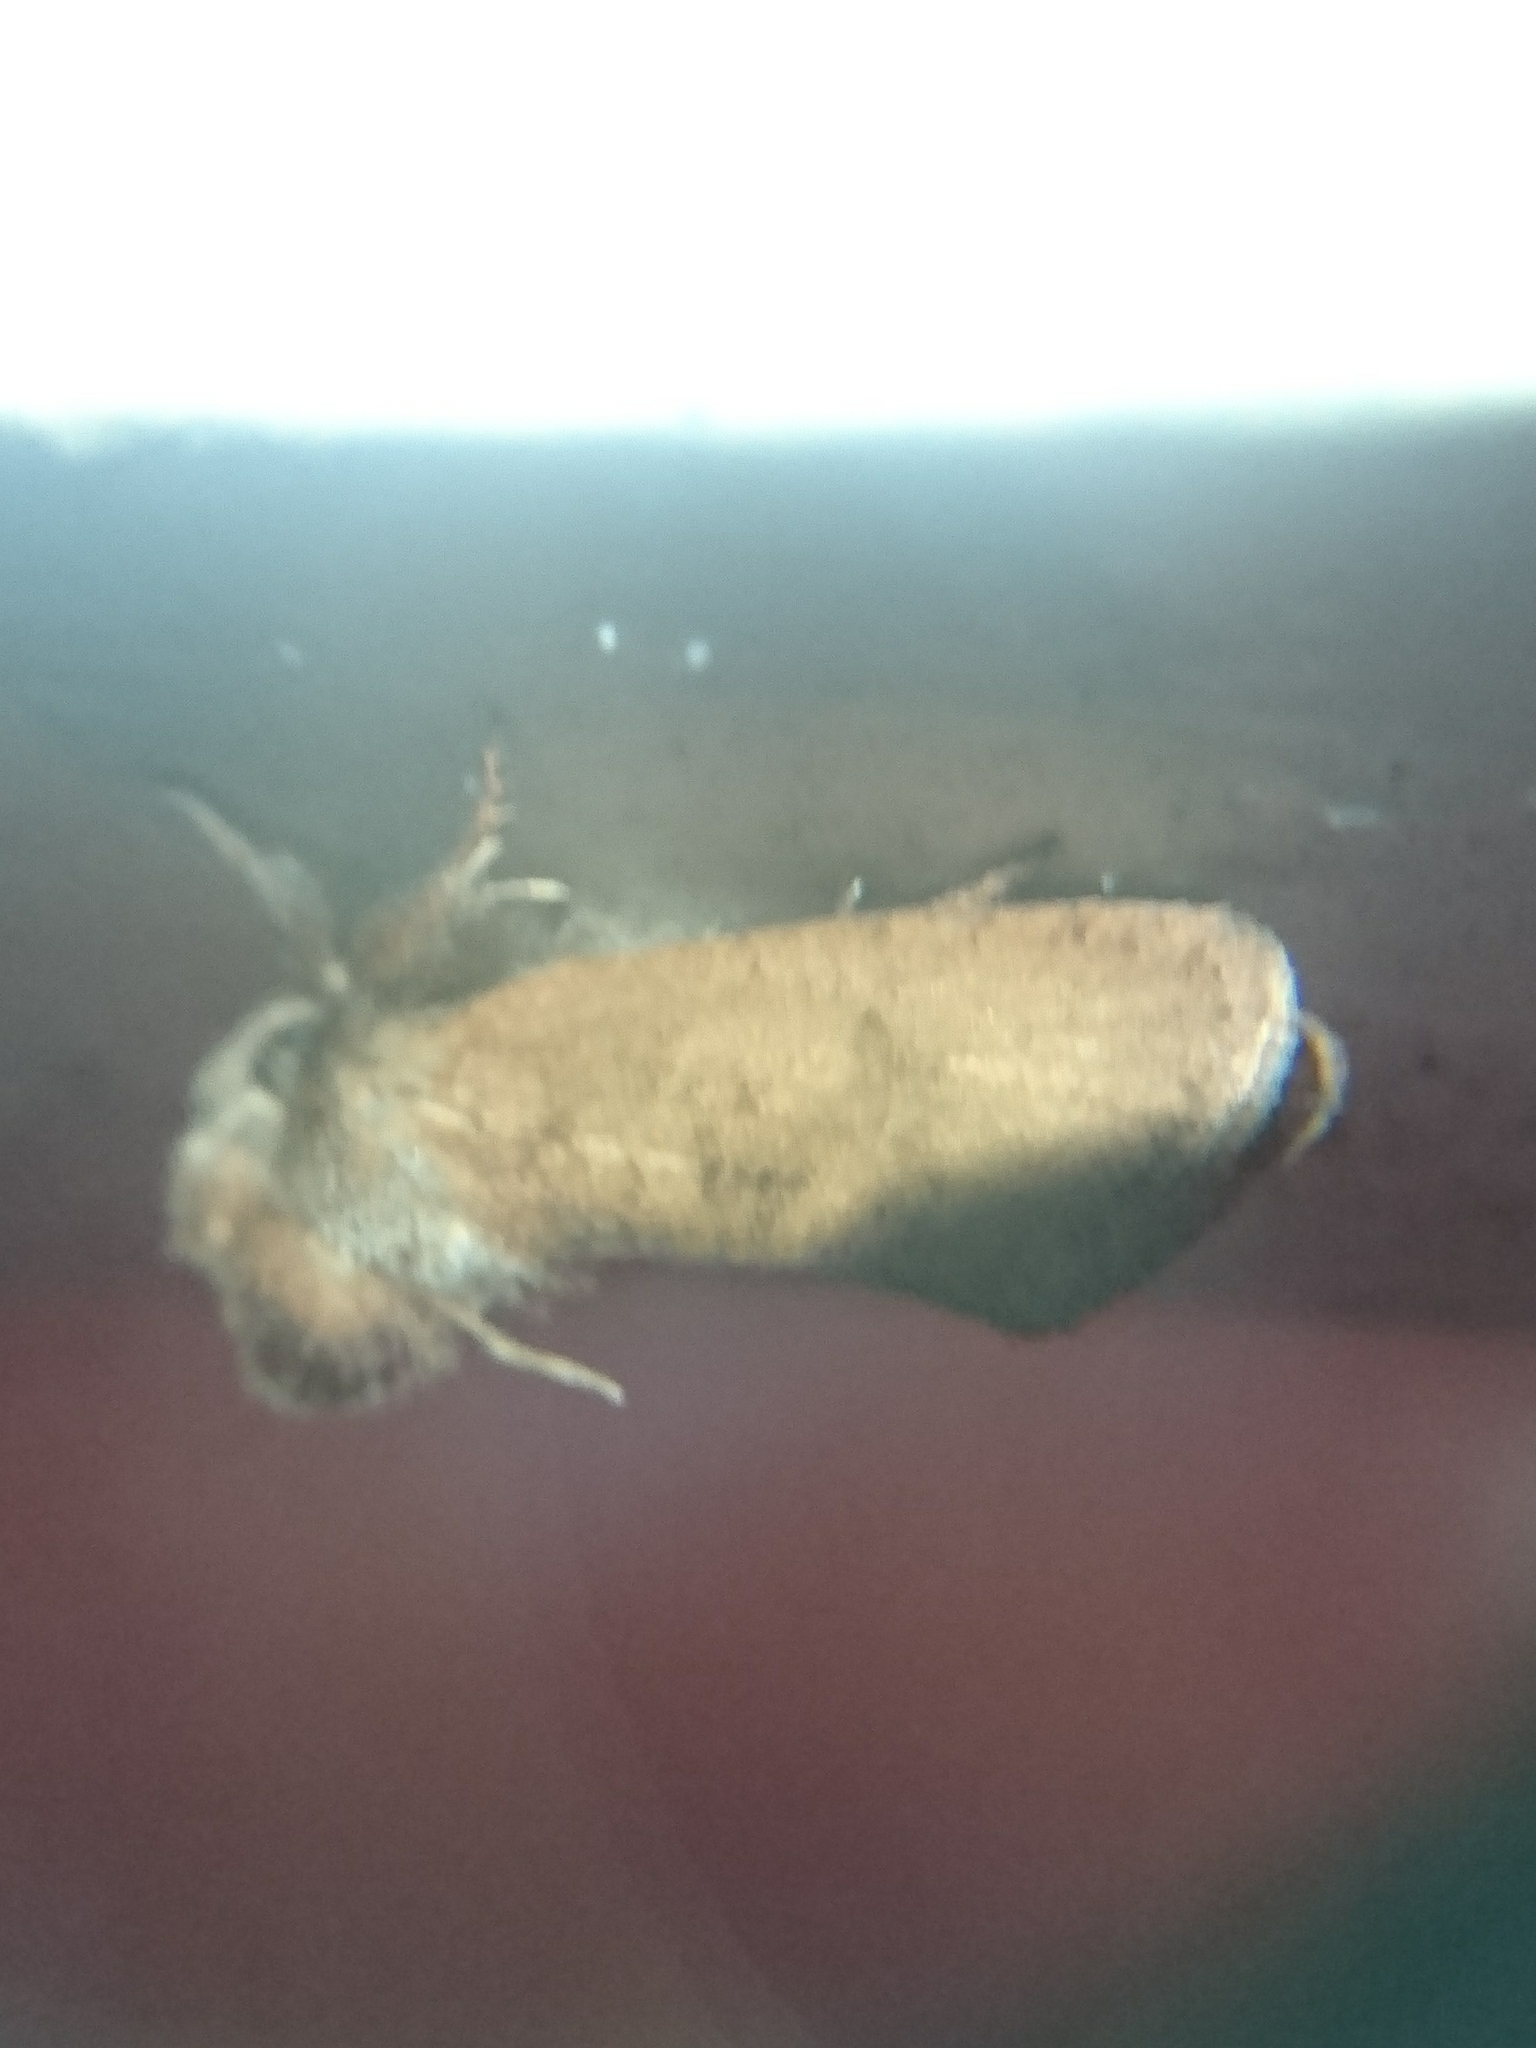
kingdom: Animalia
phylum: Arthropoda
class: Insecta
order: Lepidoptera
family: Tineidae
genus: Acrolophus
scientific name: Acrolophus plumifrontella
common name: Eastern grass tubeworm moth
